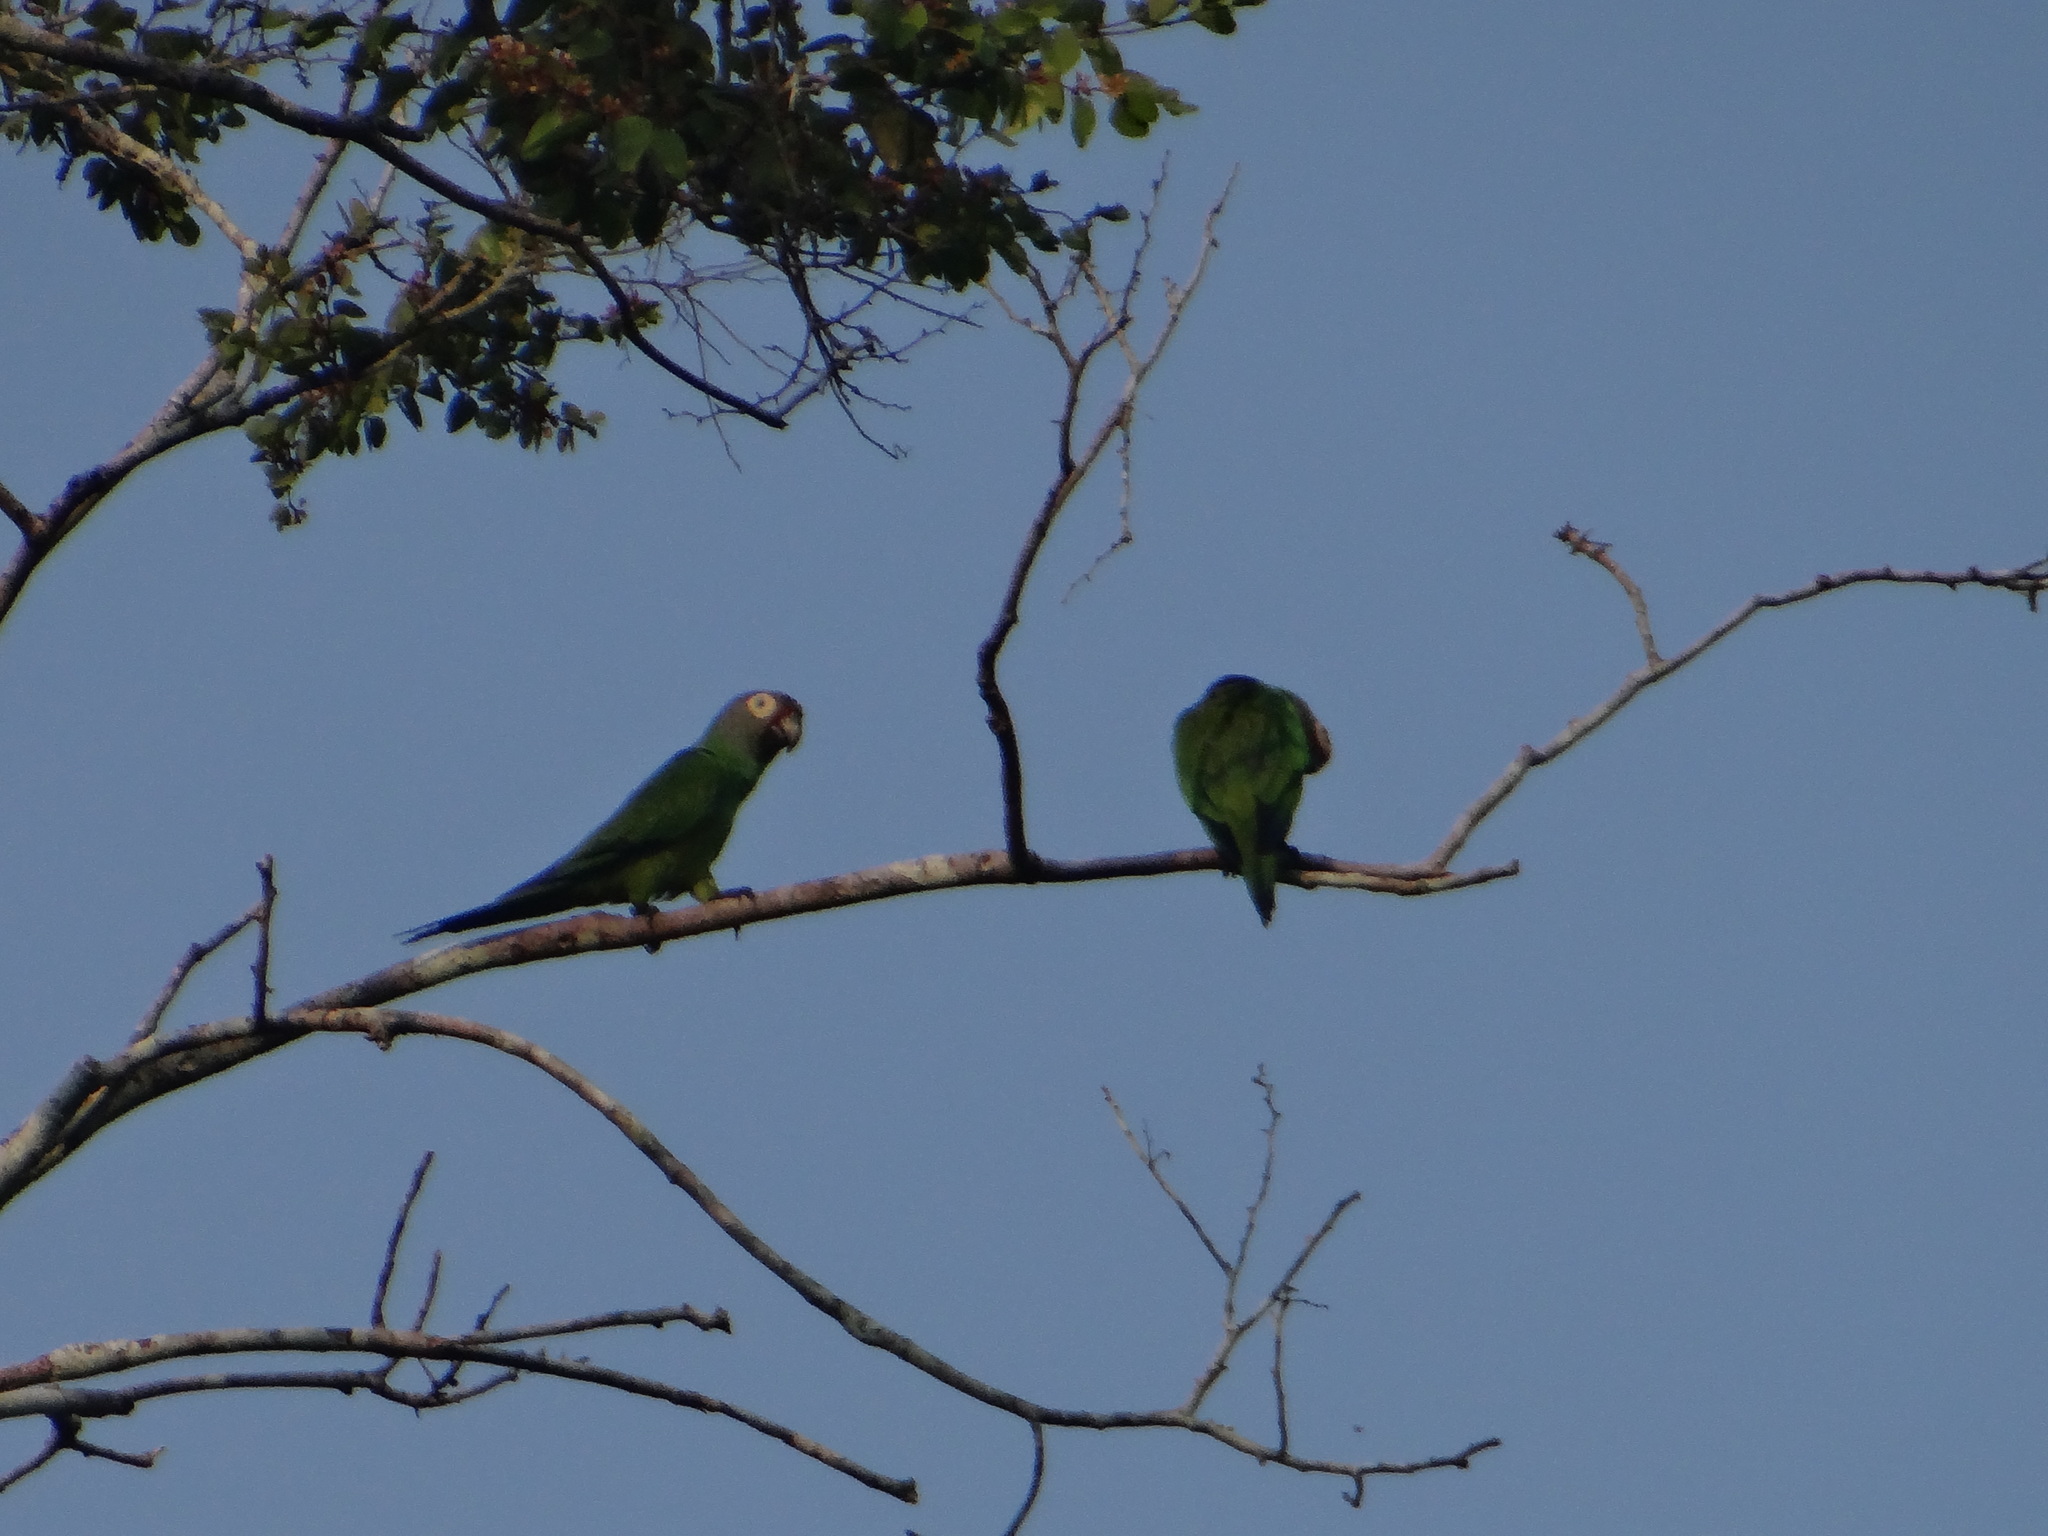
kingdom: Animalia
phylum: Chordata
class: Aves
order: Psittaciformes
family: Psittacidae
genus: Aratinga
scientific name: Aratinga weddellii
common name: Dusky-headed parakeet
